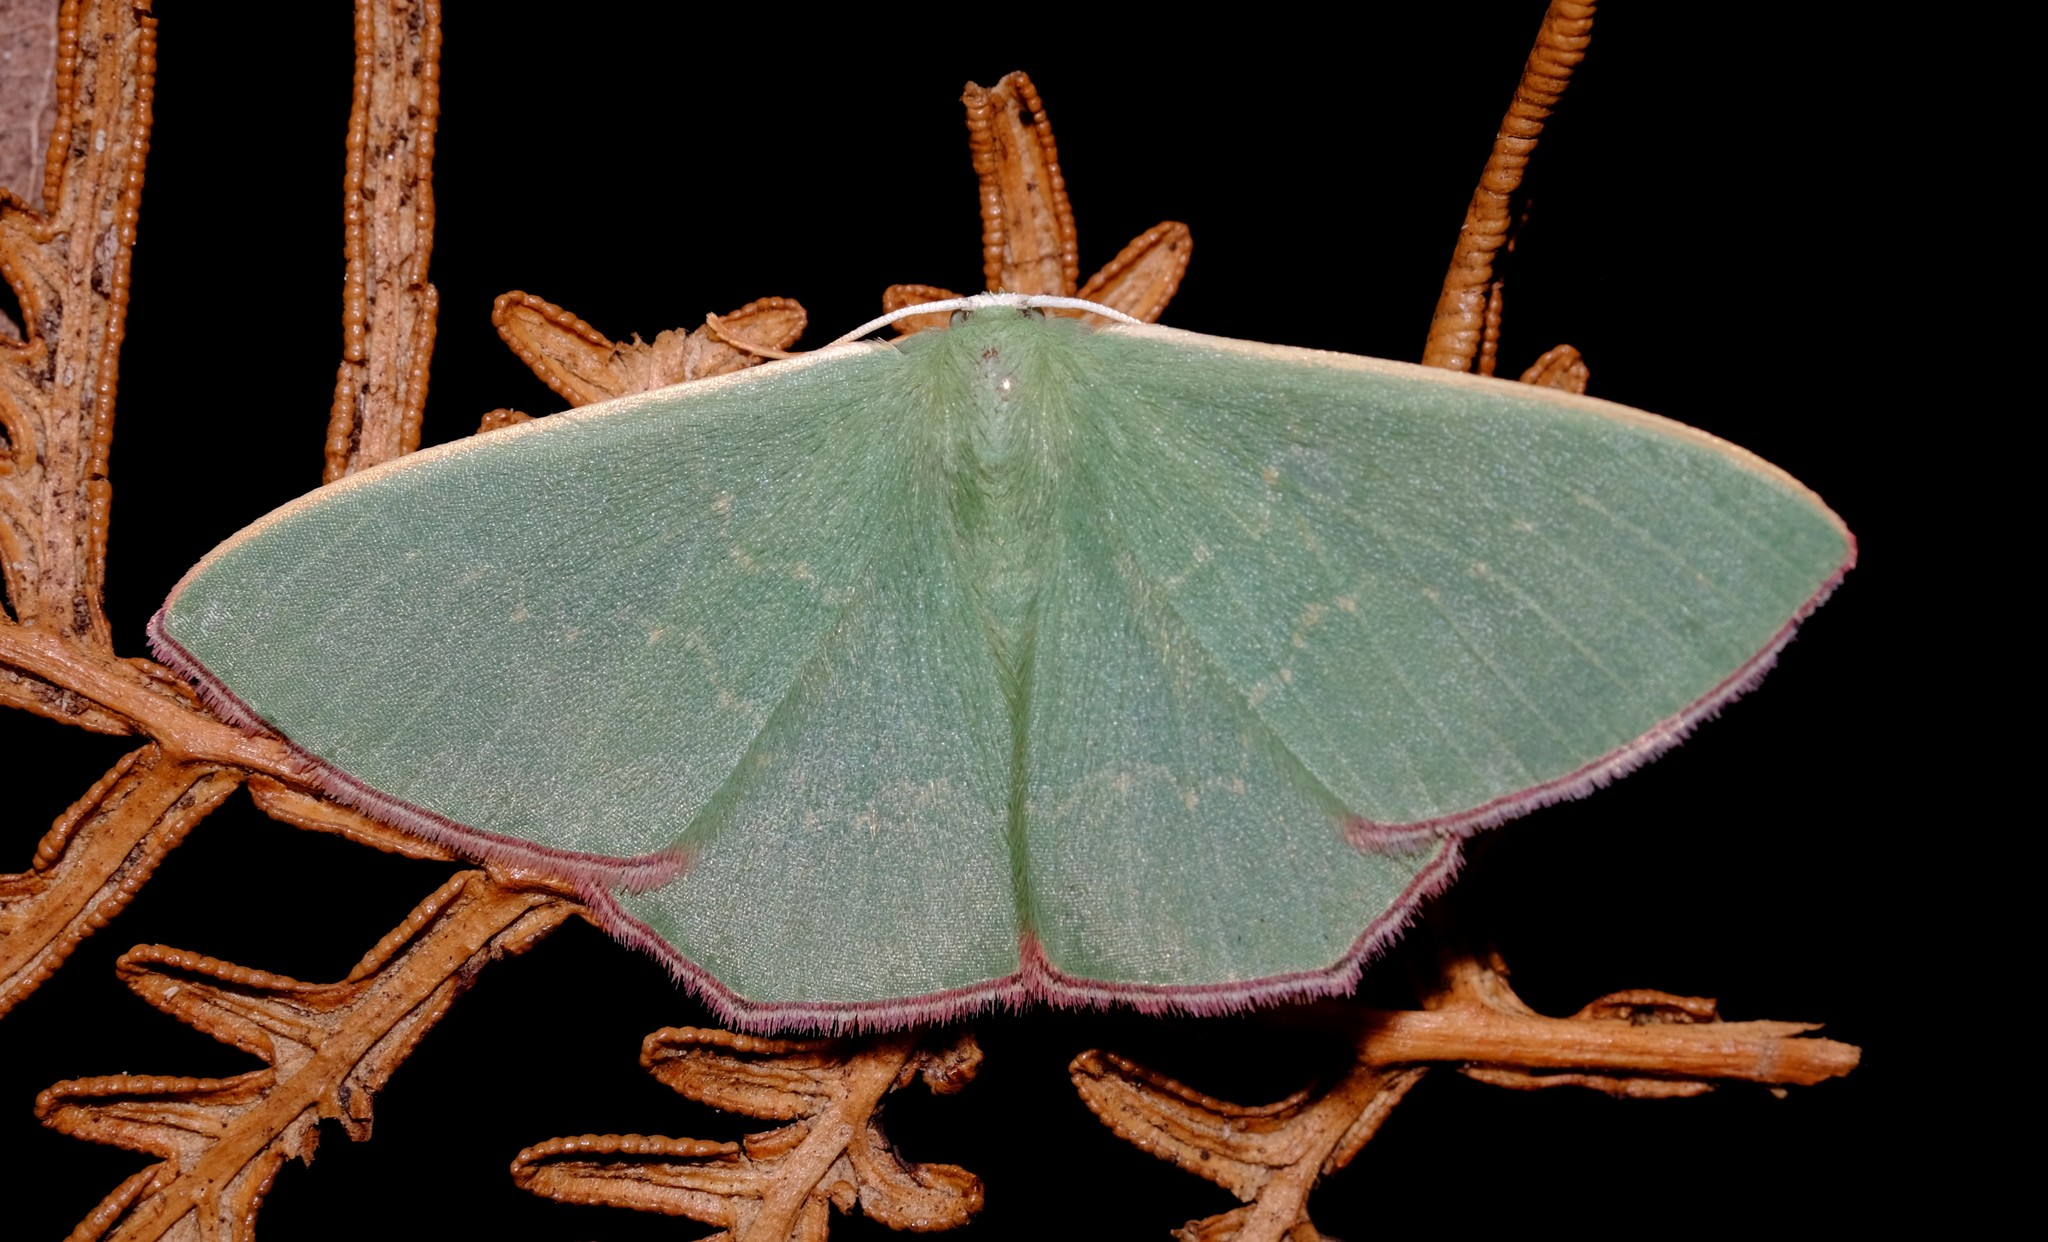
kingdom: Animalia
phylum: Arthropoda
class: Insecta
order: Lepidoptera
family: Geometridae
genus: Prasinocyma
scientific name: Prasinocyma semicrocea
